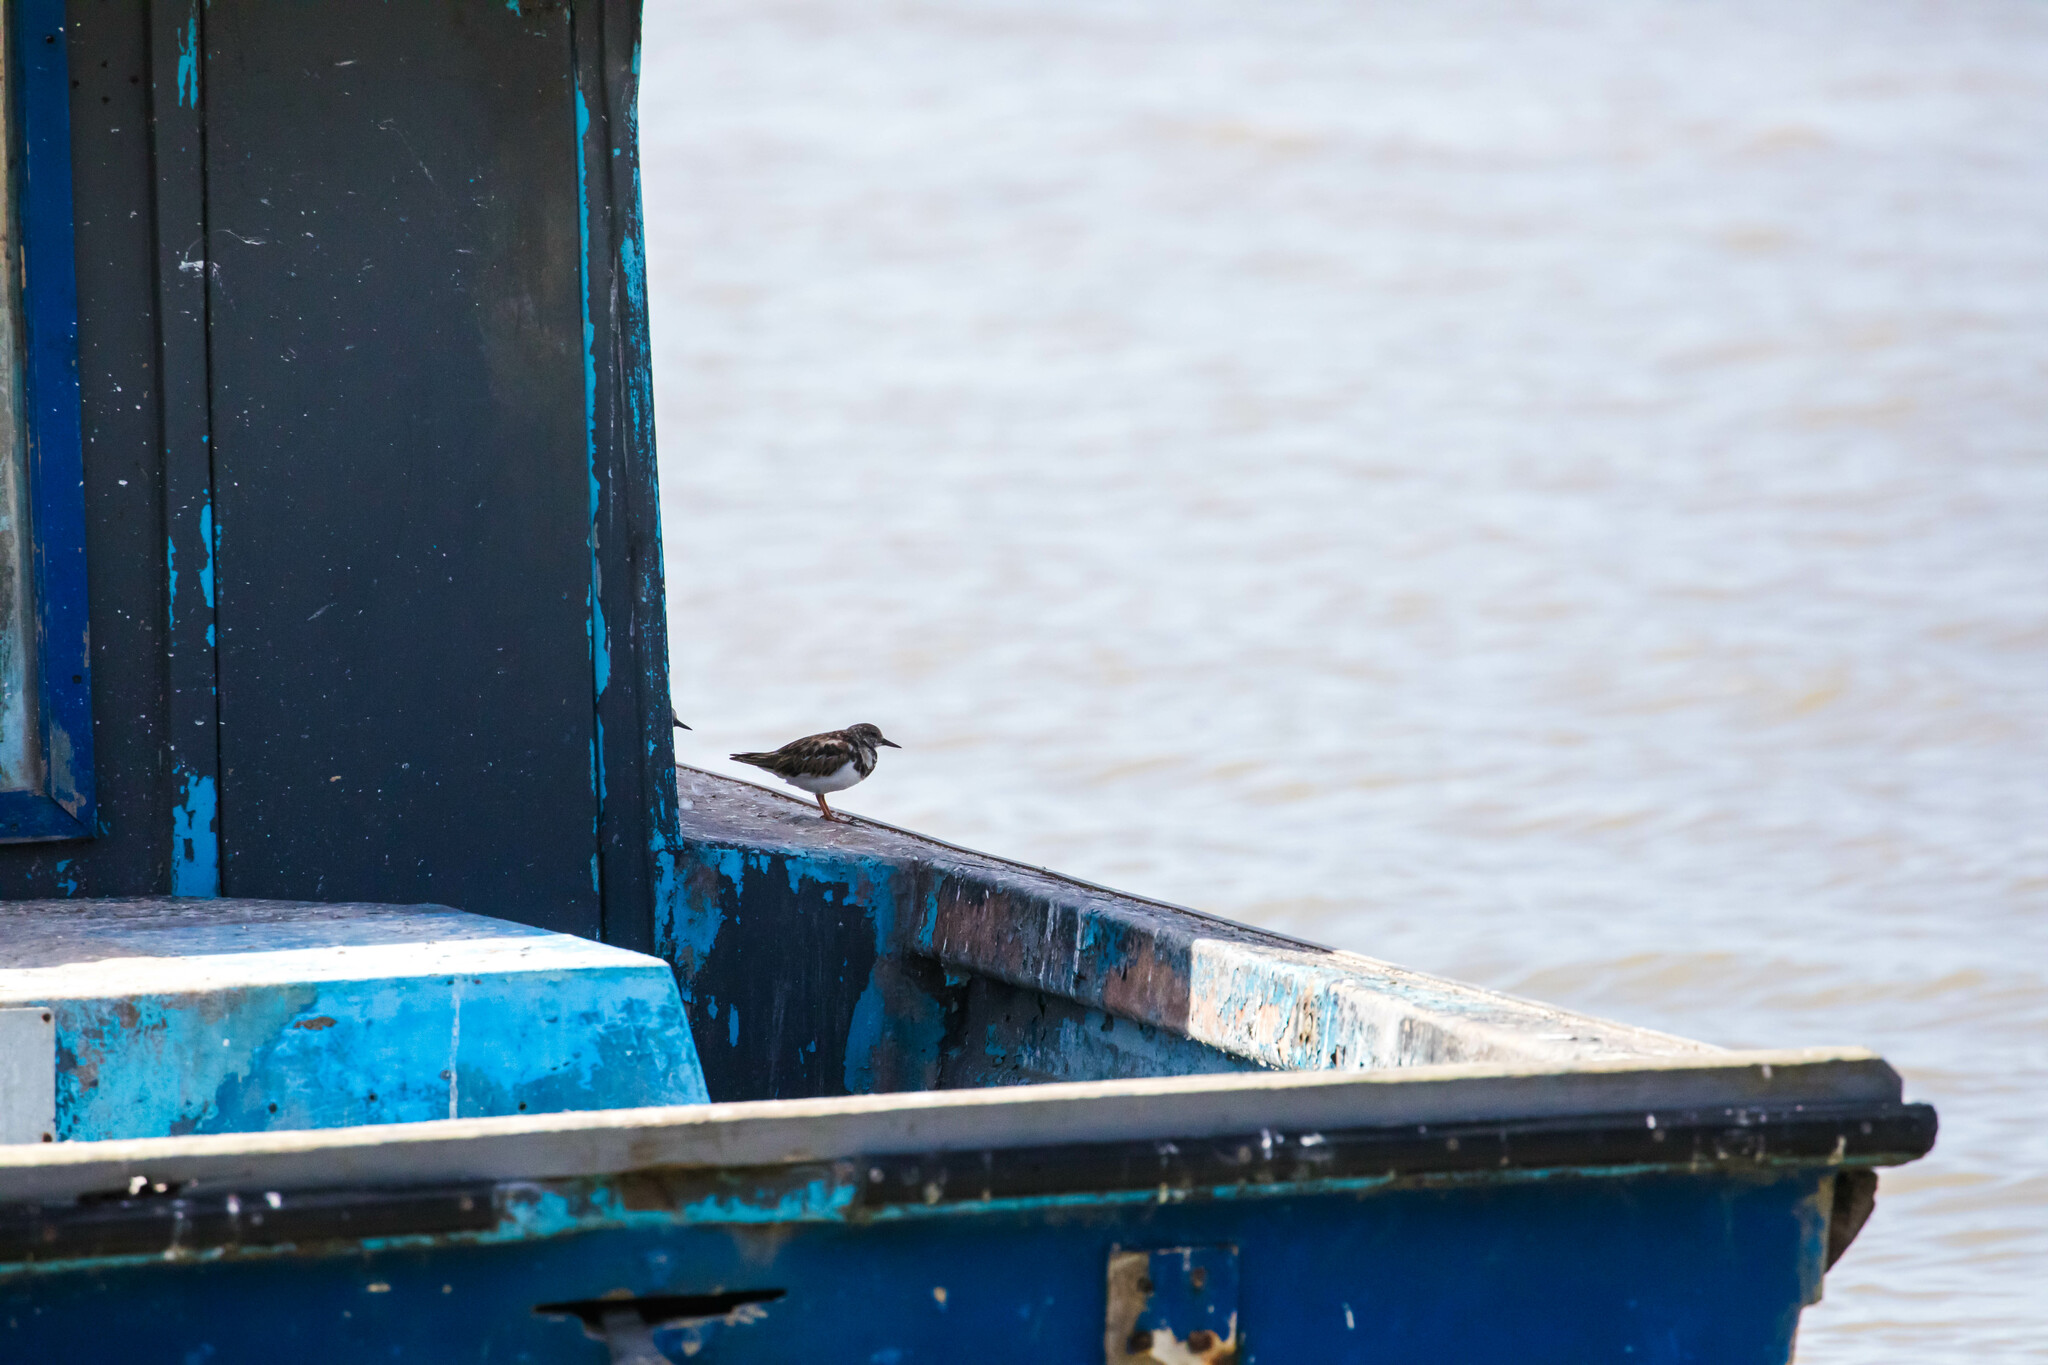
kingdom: Animalia
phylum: Chordata
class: Aves
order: Charadriiformes
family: Scolopacidae
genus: Arenaria
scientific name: Arenaria interpres
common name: Ruddy turnstone
